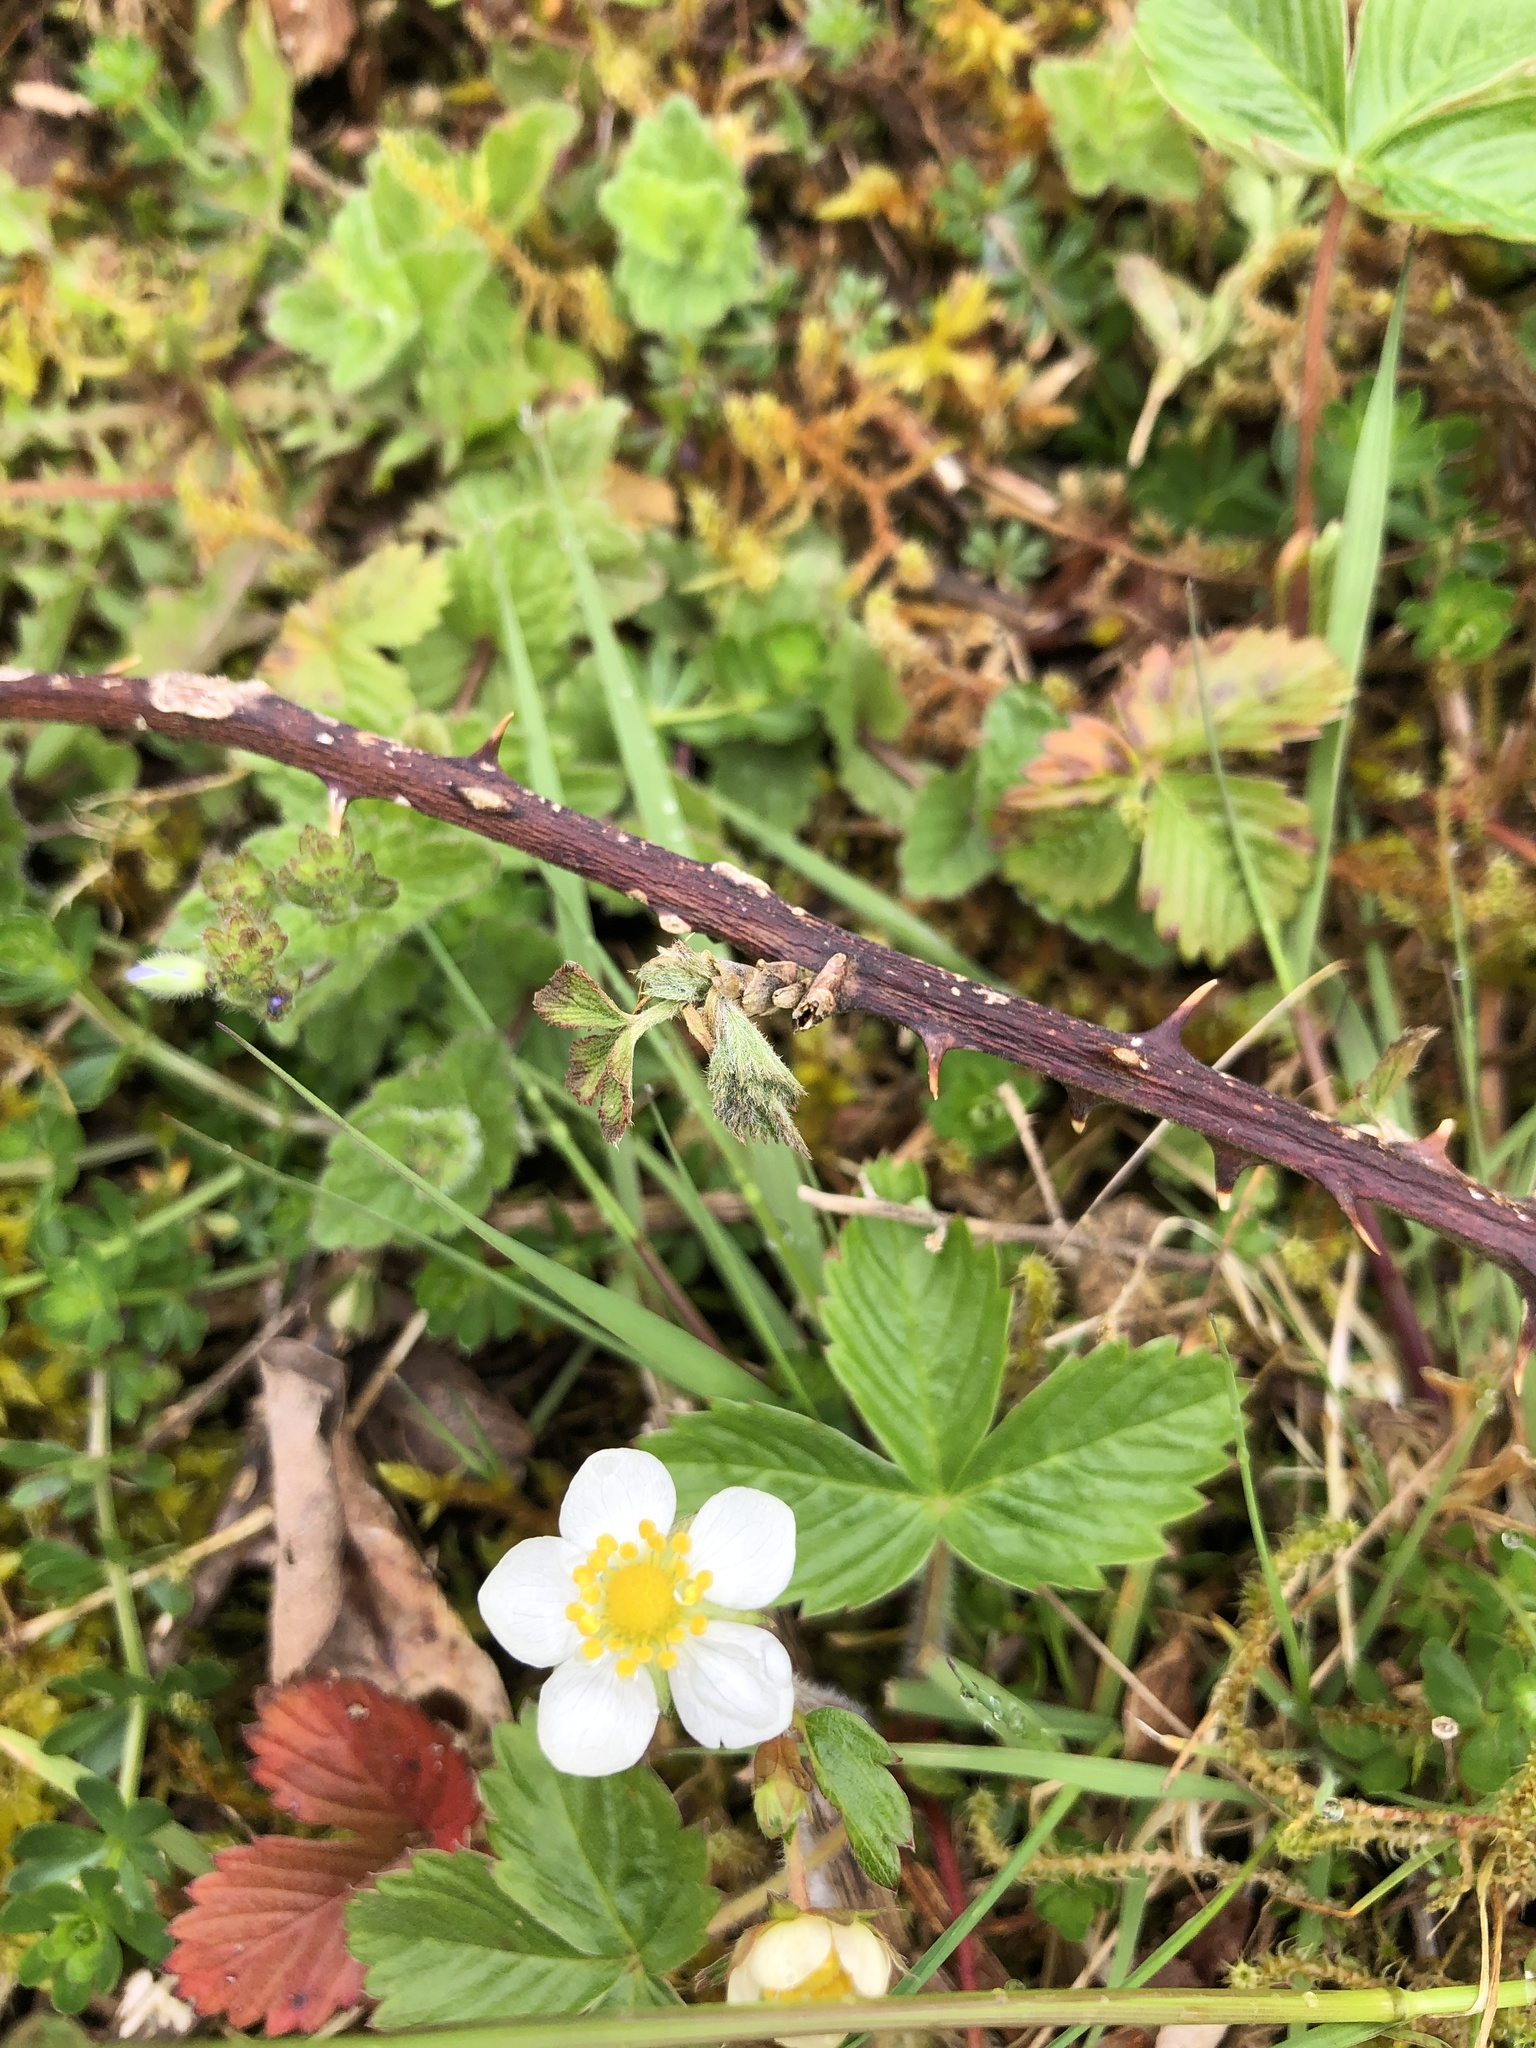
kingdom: Plantae
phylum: Tracheophyta
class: Magnoliopsida
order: Rosales
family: Rosaceae
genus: Fragaria
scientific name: Fragaria vesca
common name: Wild strawberry
